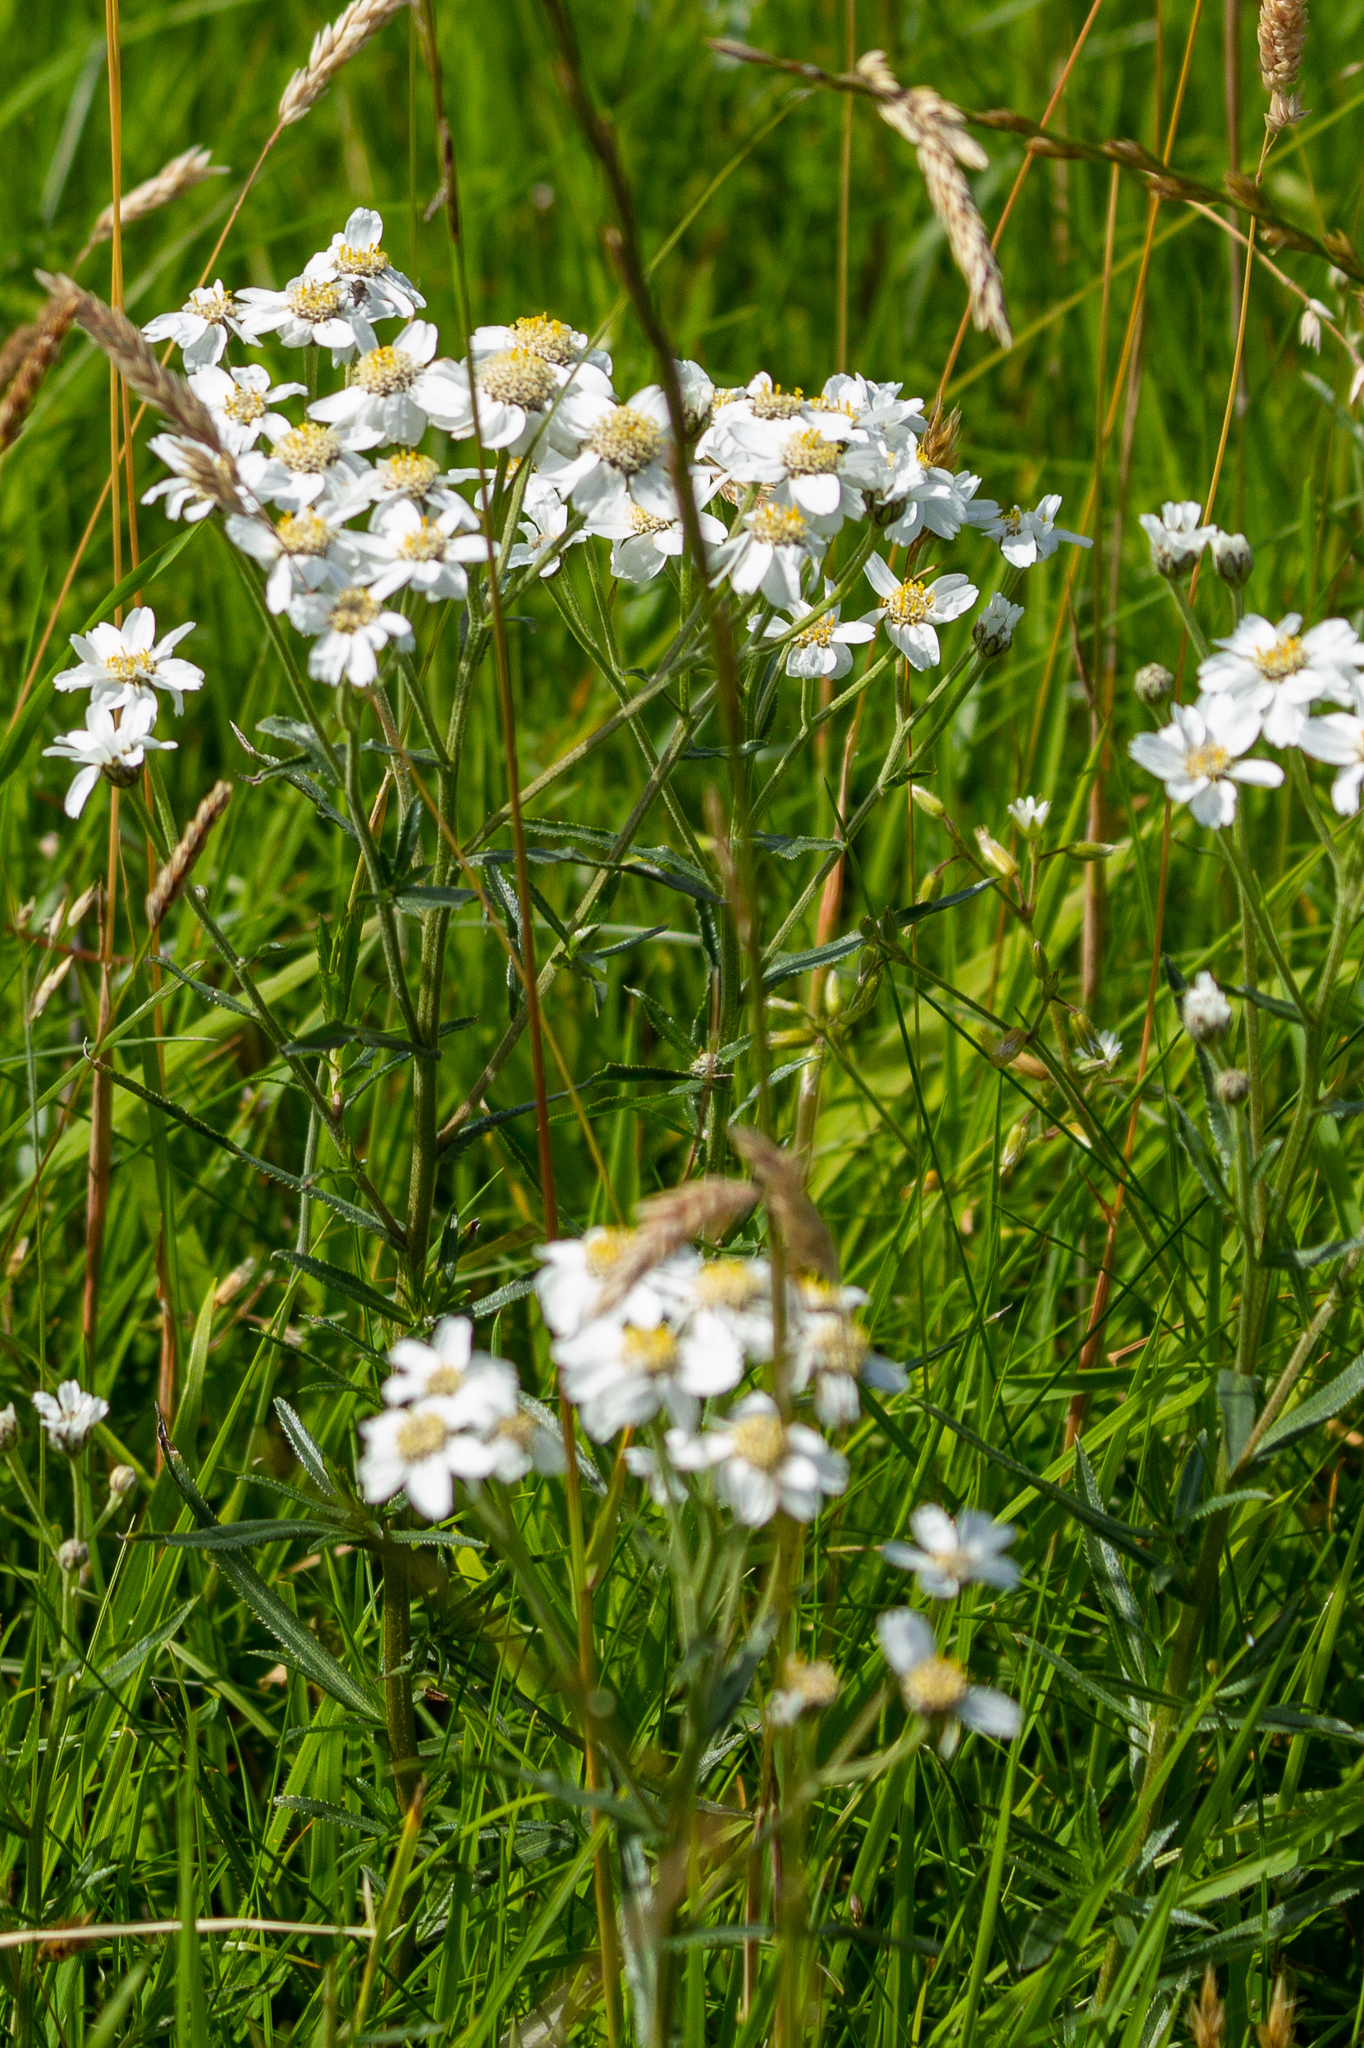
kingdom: Plantae
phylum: Tracheophyta
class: Magnoliopsida
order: Asterales
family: Asteraceae
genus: Achillea
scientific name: Achillea ptarmica
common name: Sneezeweed
